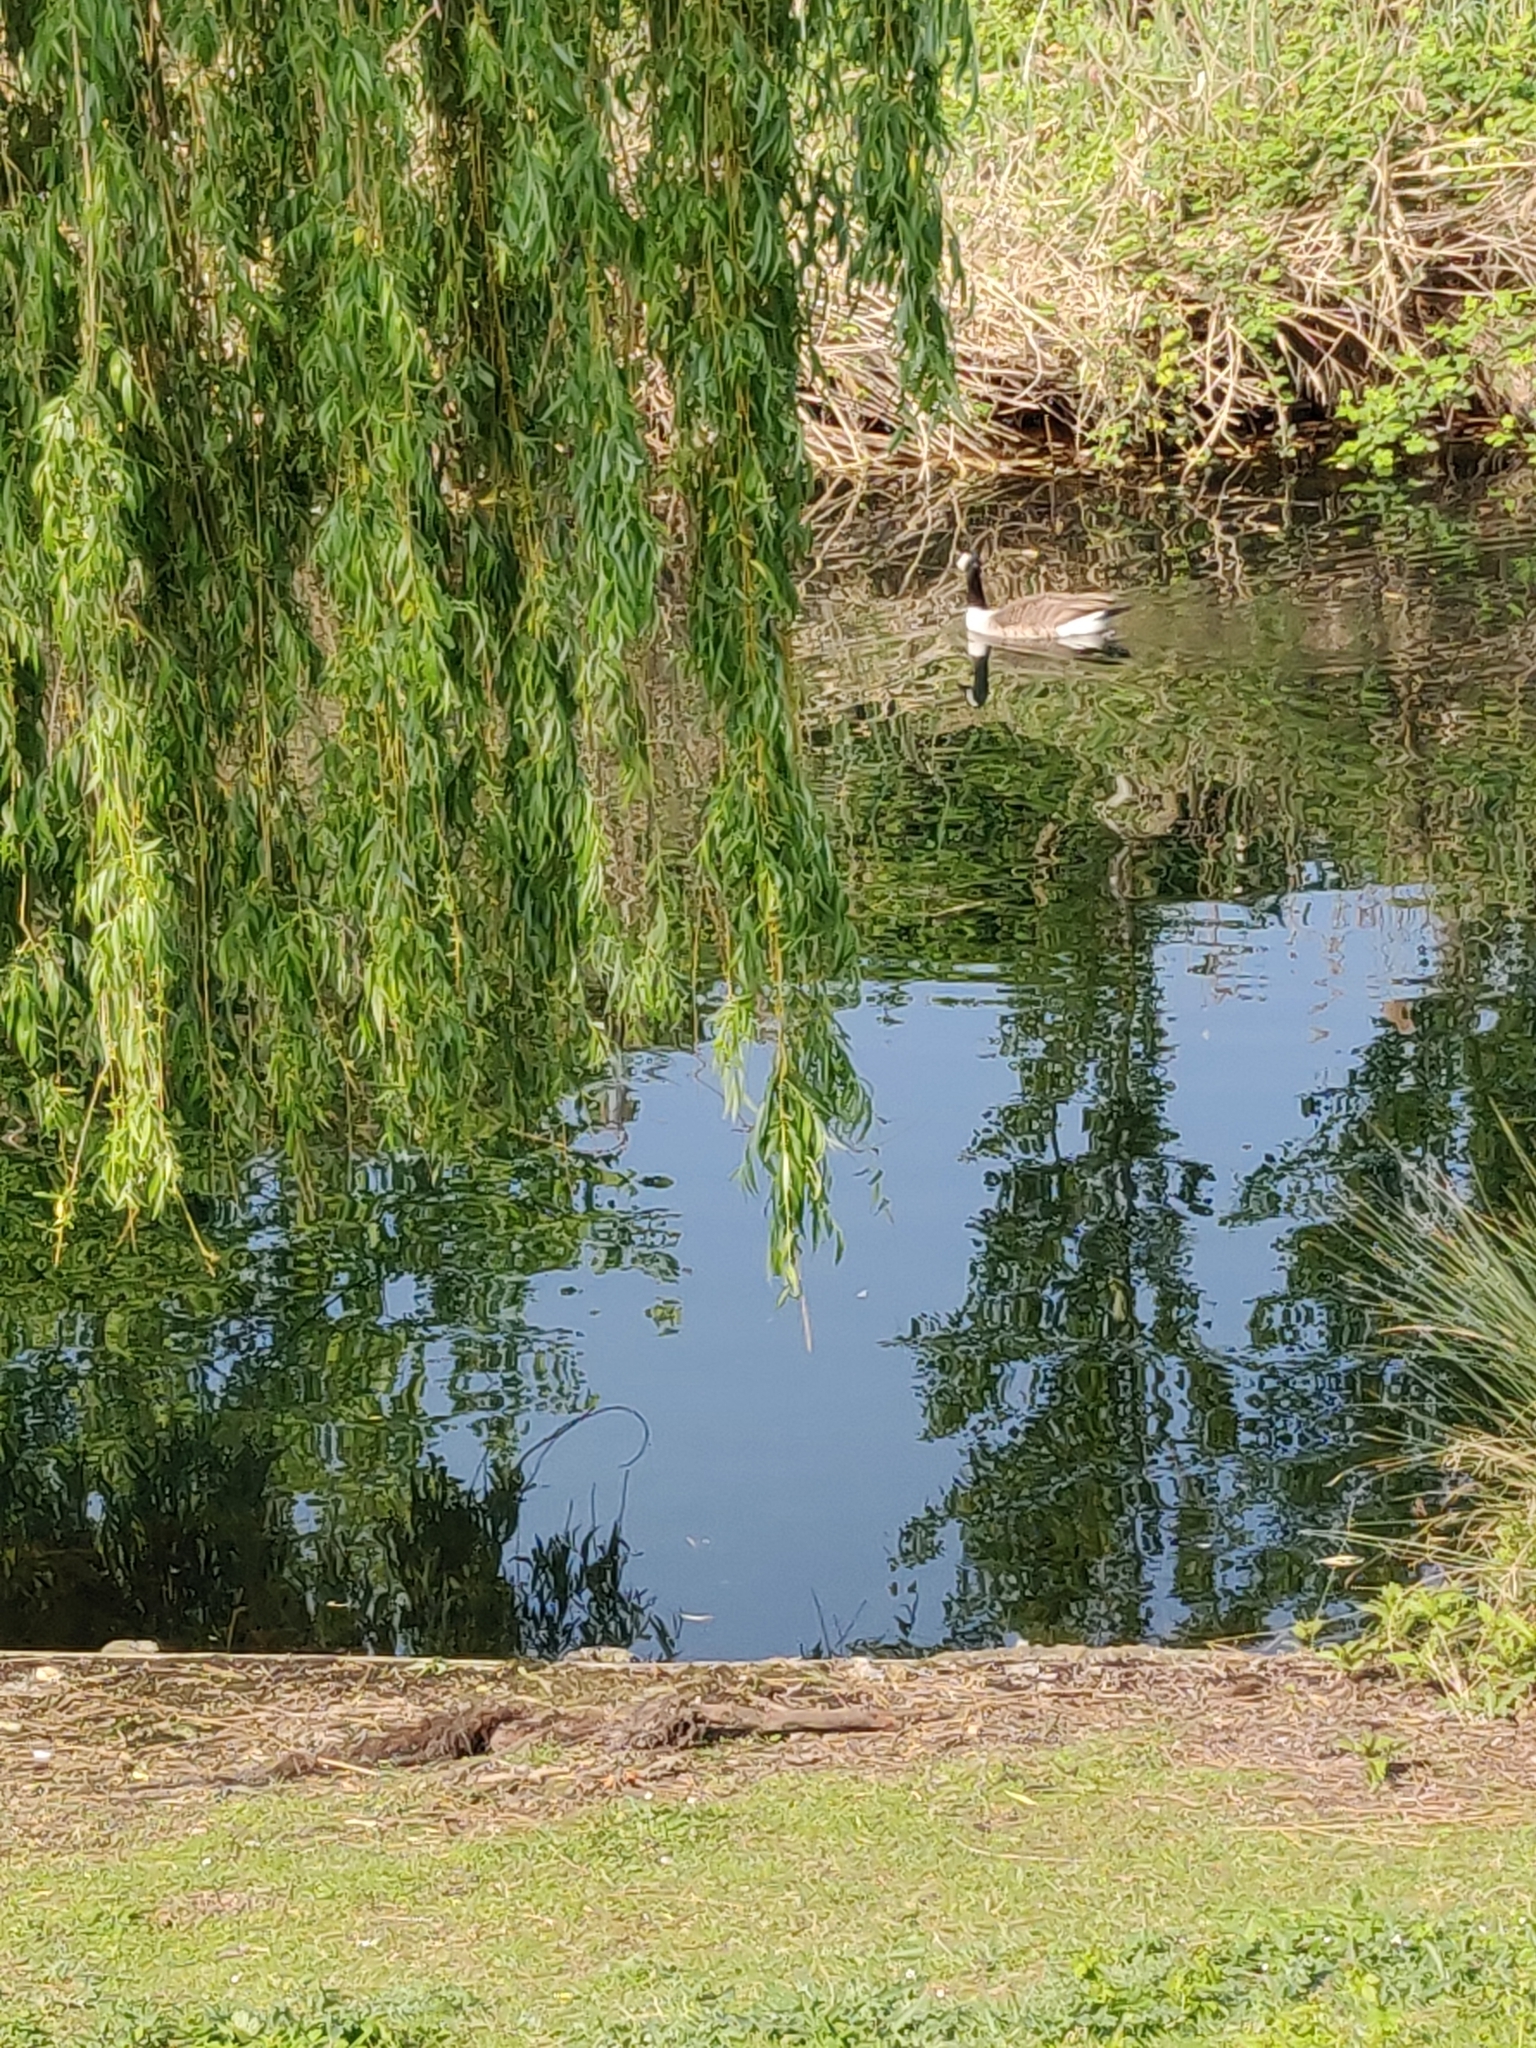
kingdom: Animalia
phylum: Chordata
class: Aves
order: Anseriformes
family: Anatidae
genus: Branta
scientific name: Branta canadensis
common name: Canada goose
